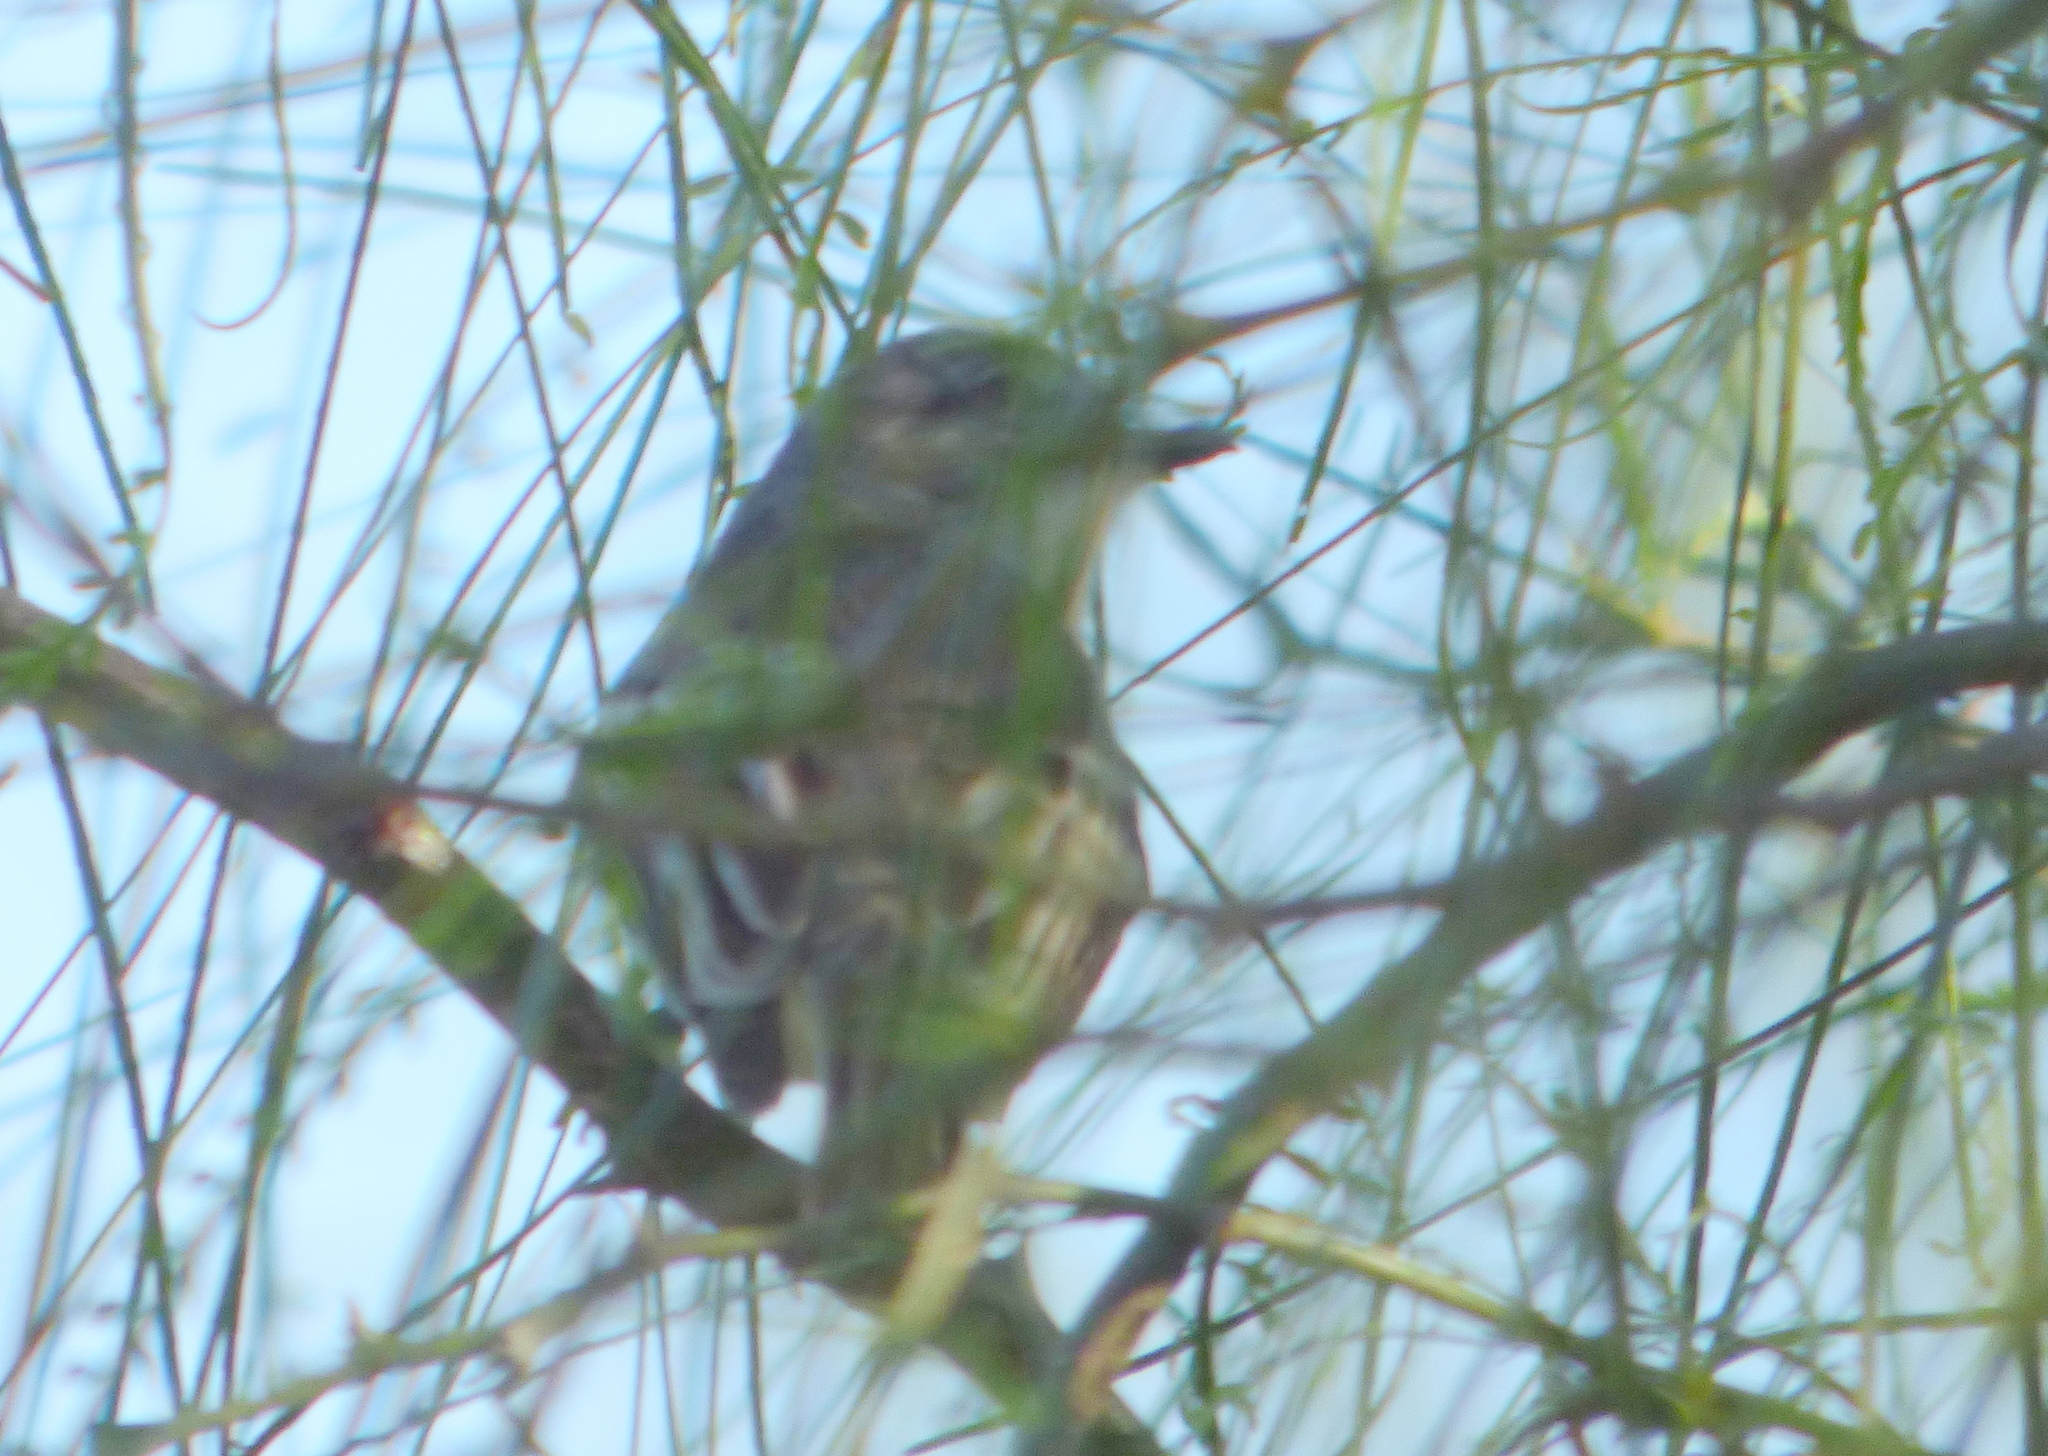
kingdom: Animalia
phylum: Chordata
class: Aves
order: Passeriformes
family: Tyrannidae
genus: Suiriri
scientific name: Suiriri suiriri
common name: Suiriri flycatcher
